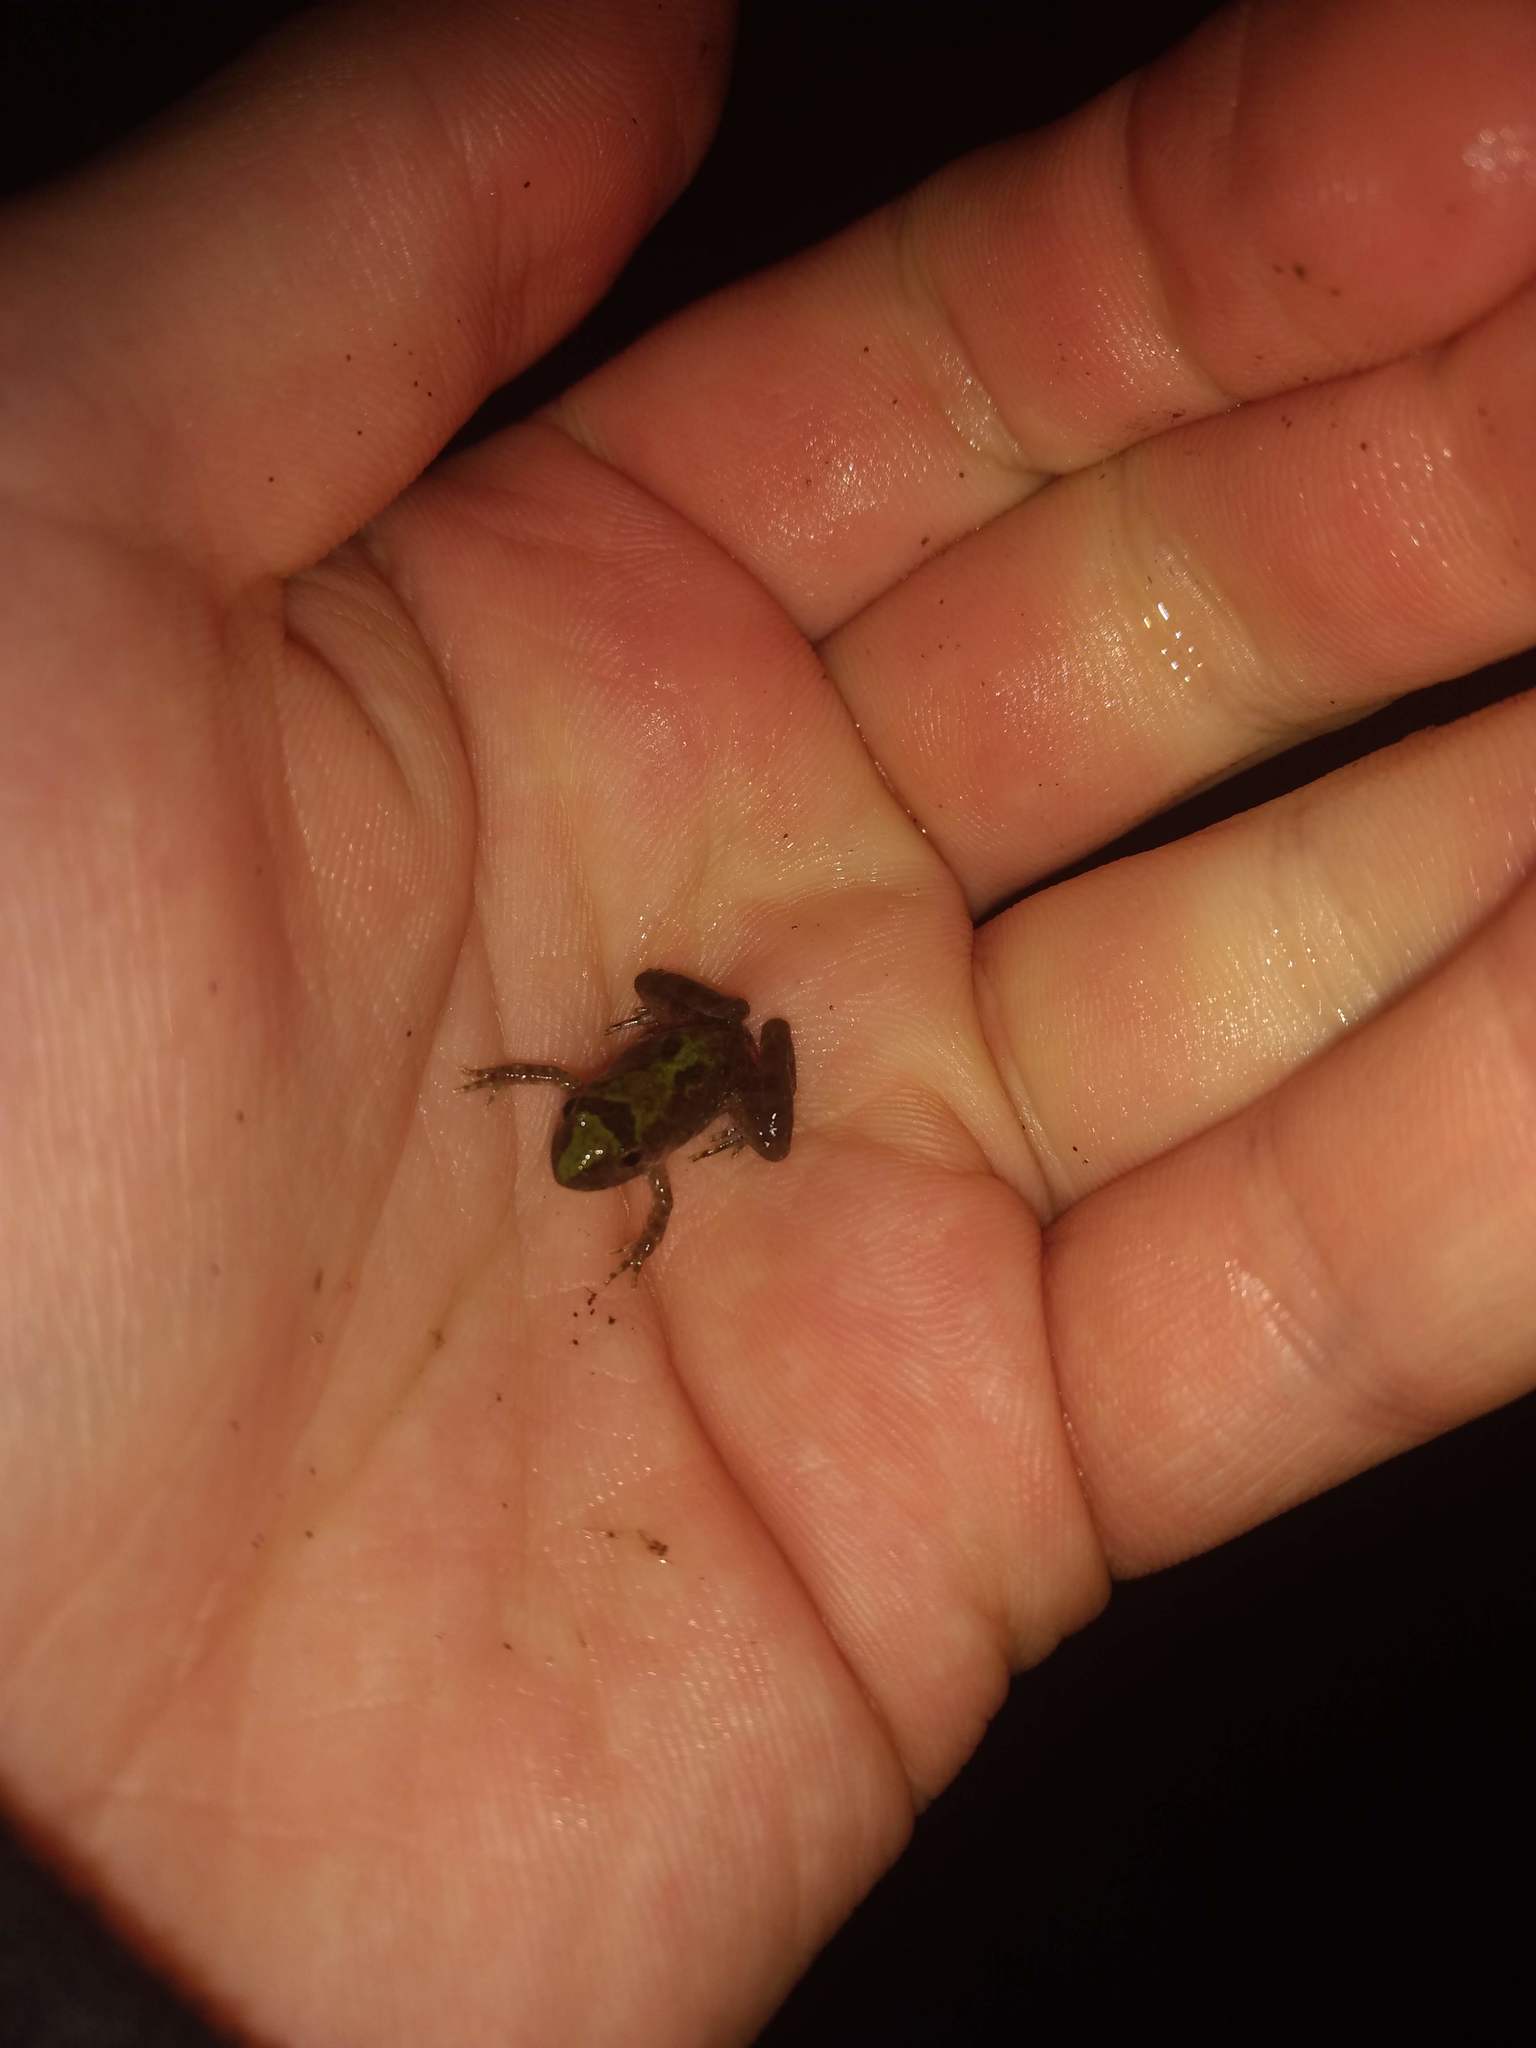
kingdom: Animalia
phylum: Chordata
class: Amphibia
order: Anura
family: Hylidae
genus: Acris
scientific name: Acris blanchardi
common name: Blanchard's cricket frog
